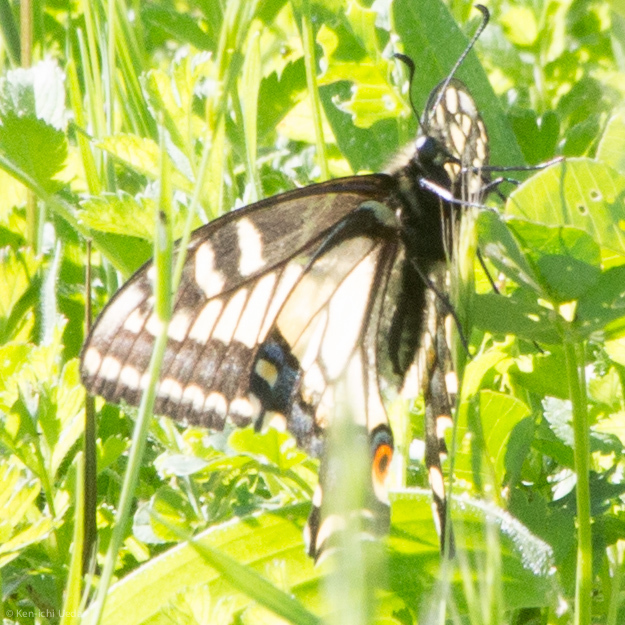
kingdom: Animalia
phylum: Arthropoda
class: Insecta
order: Lepidoptera
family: Papilionidae
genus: Papilio
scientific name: Papilio zelicaon
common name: Anise swallowtail
